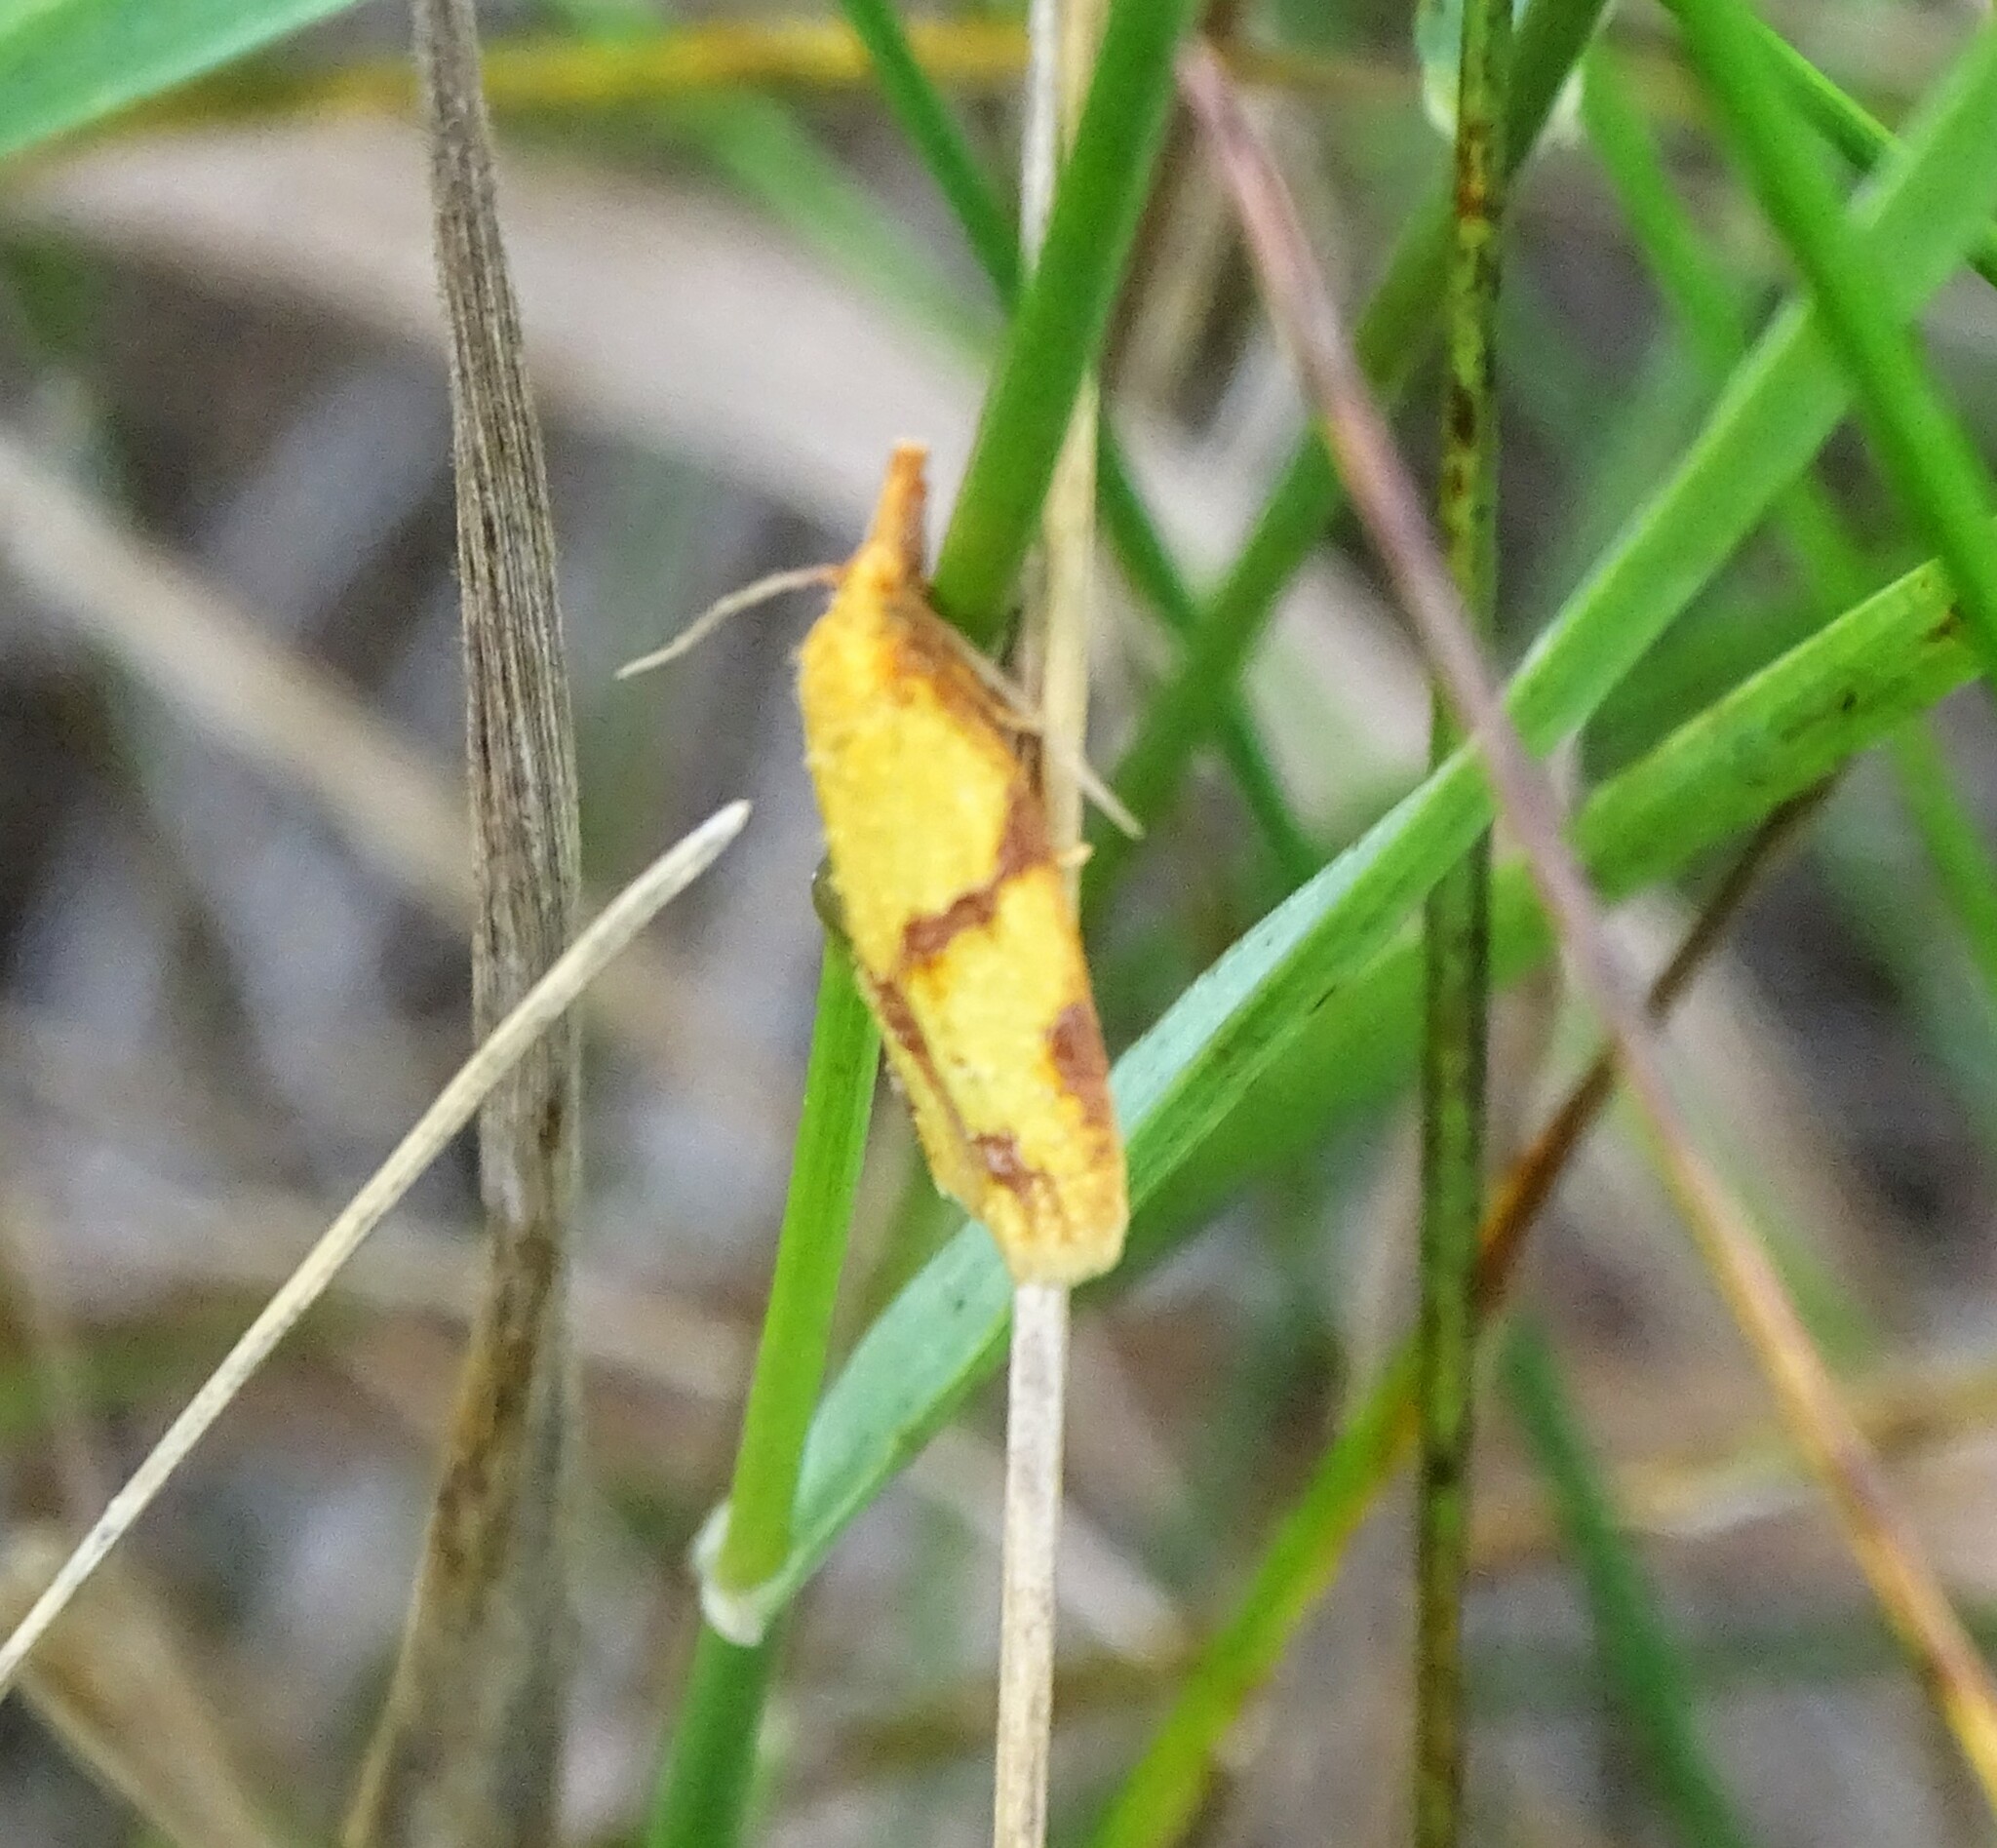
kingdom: Animalia
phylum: Arthropoda
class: Insecta
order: Lepidoptera
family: Tortricidae
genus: Sparganothis
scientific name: Sparganothis unifasciana
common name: One-lined sparganothis moth
